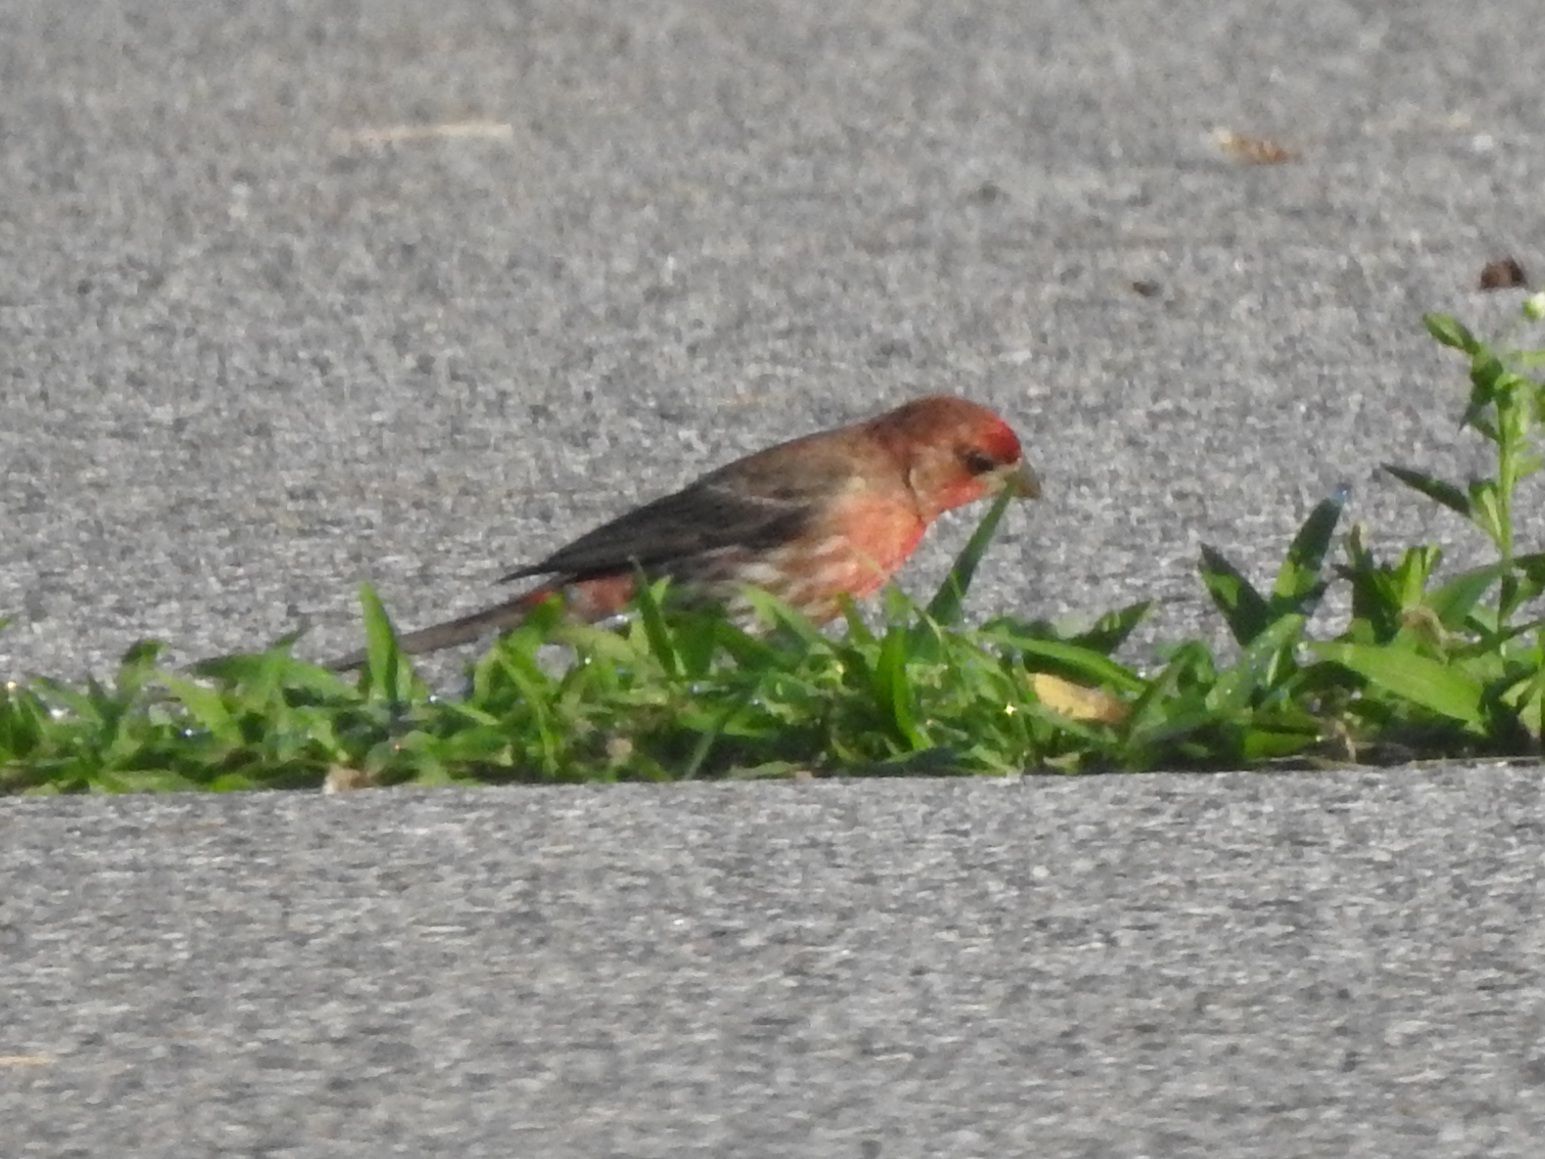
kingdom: Animalia
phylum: Chordata
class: Aves
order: Passeriformes
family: Fringillidae
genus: Haemorhous
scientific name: Haemorhous mexicanus
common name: House finch
